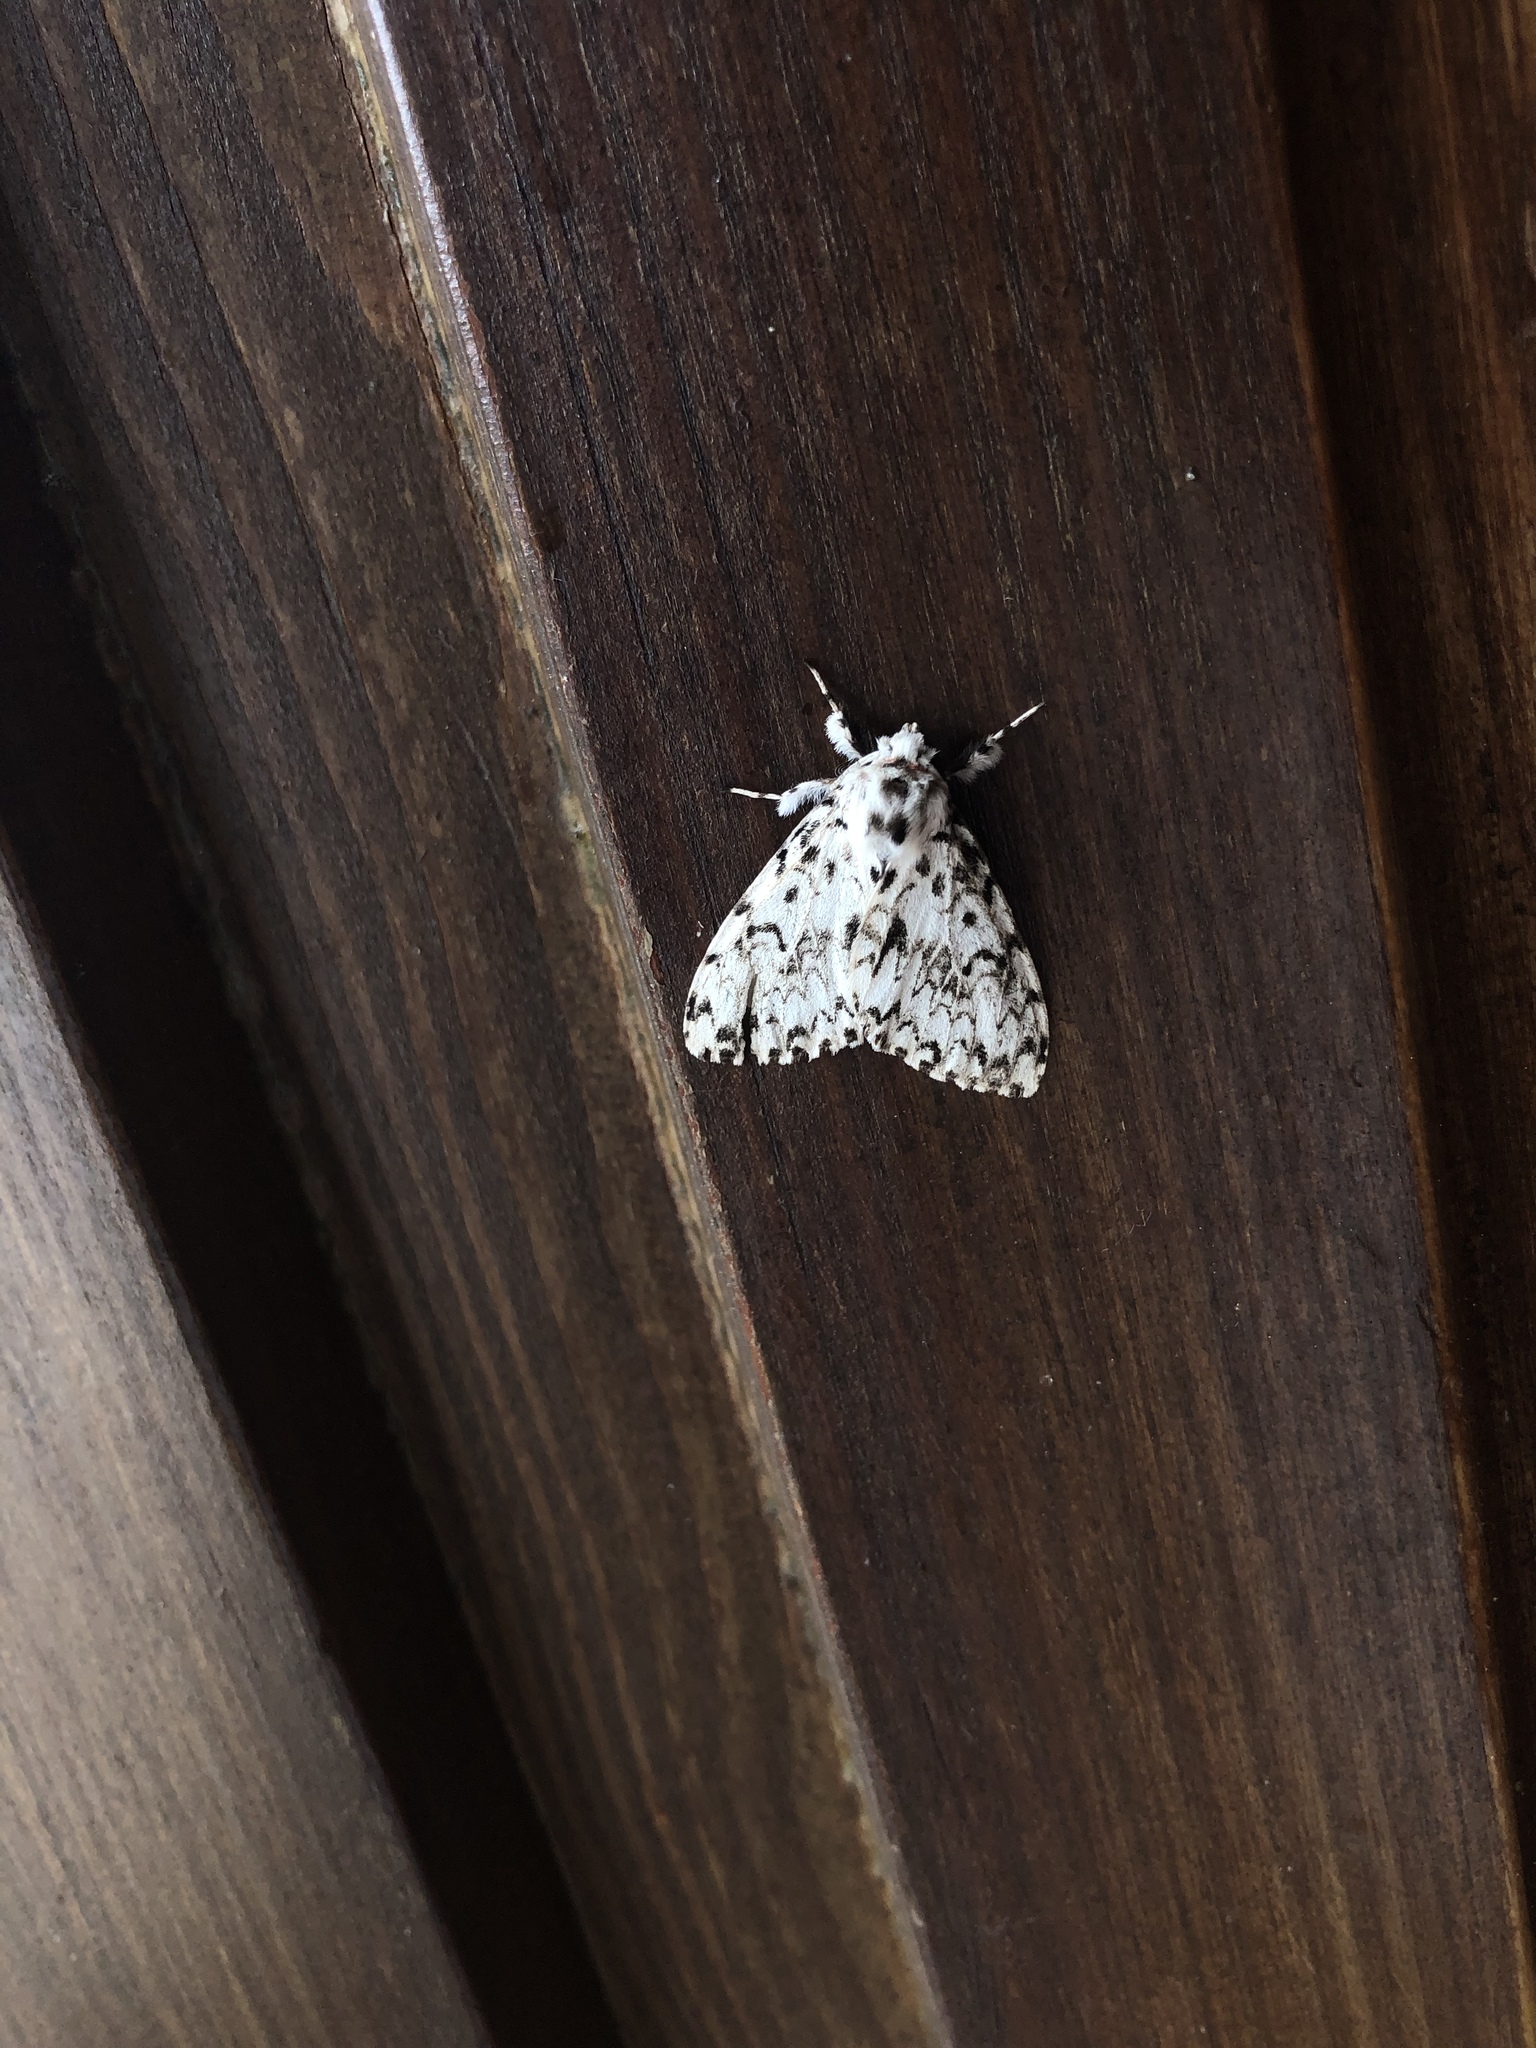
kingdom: Animalia
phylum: Arthropoda
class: Insecta
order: Lepidoptera
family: Erebidae
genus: Lymantria
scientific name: Lymantria monacha
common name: Black arches
